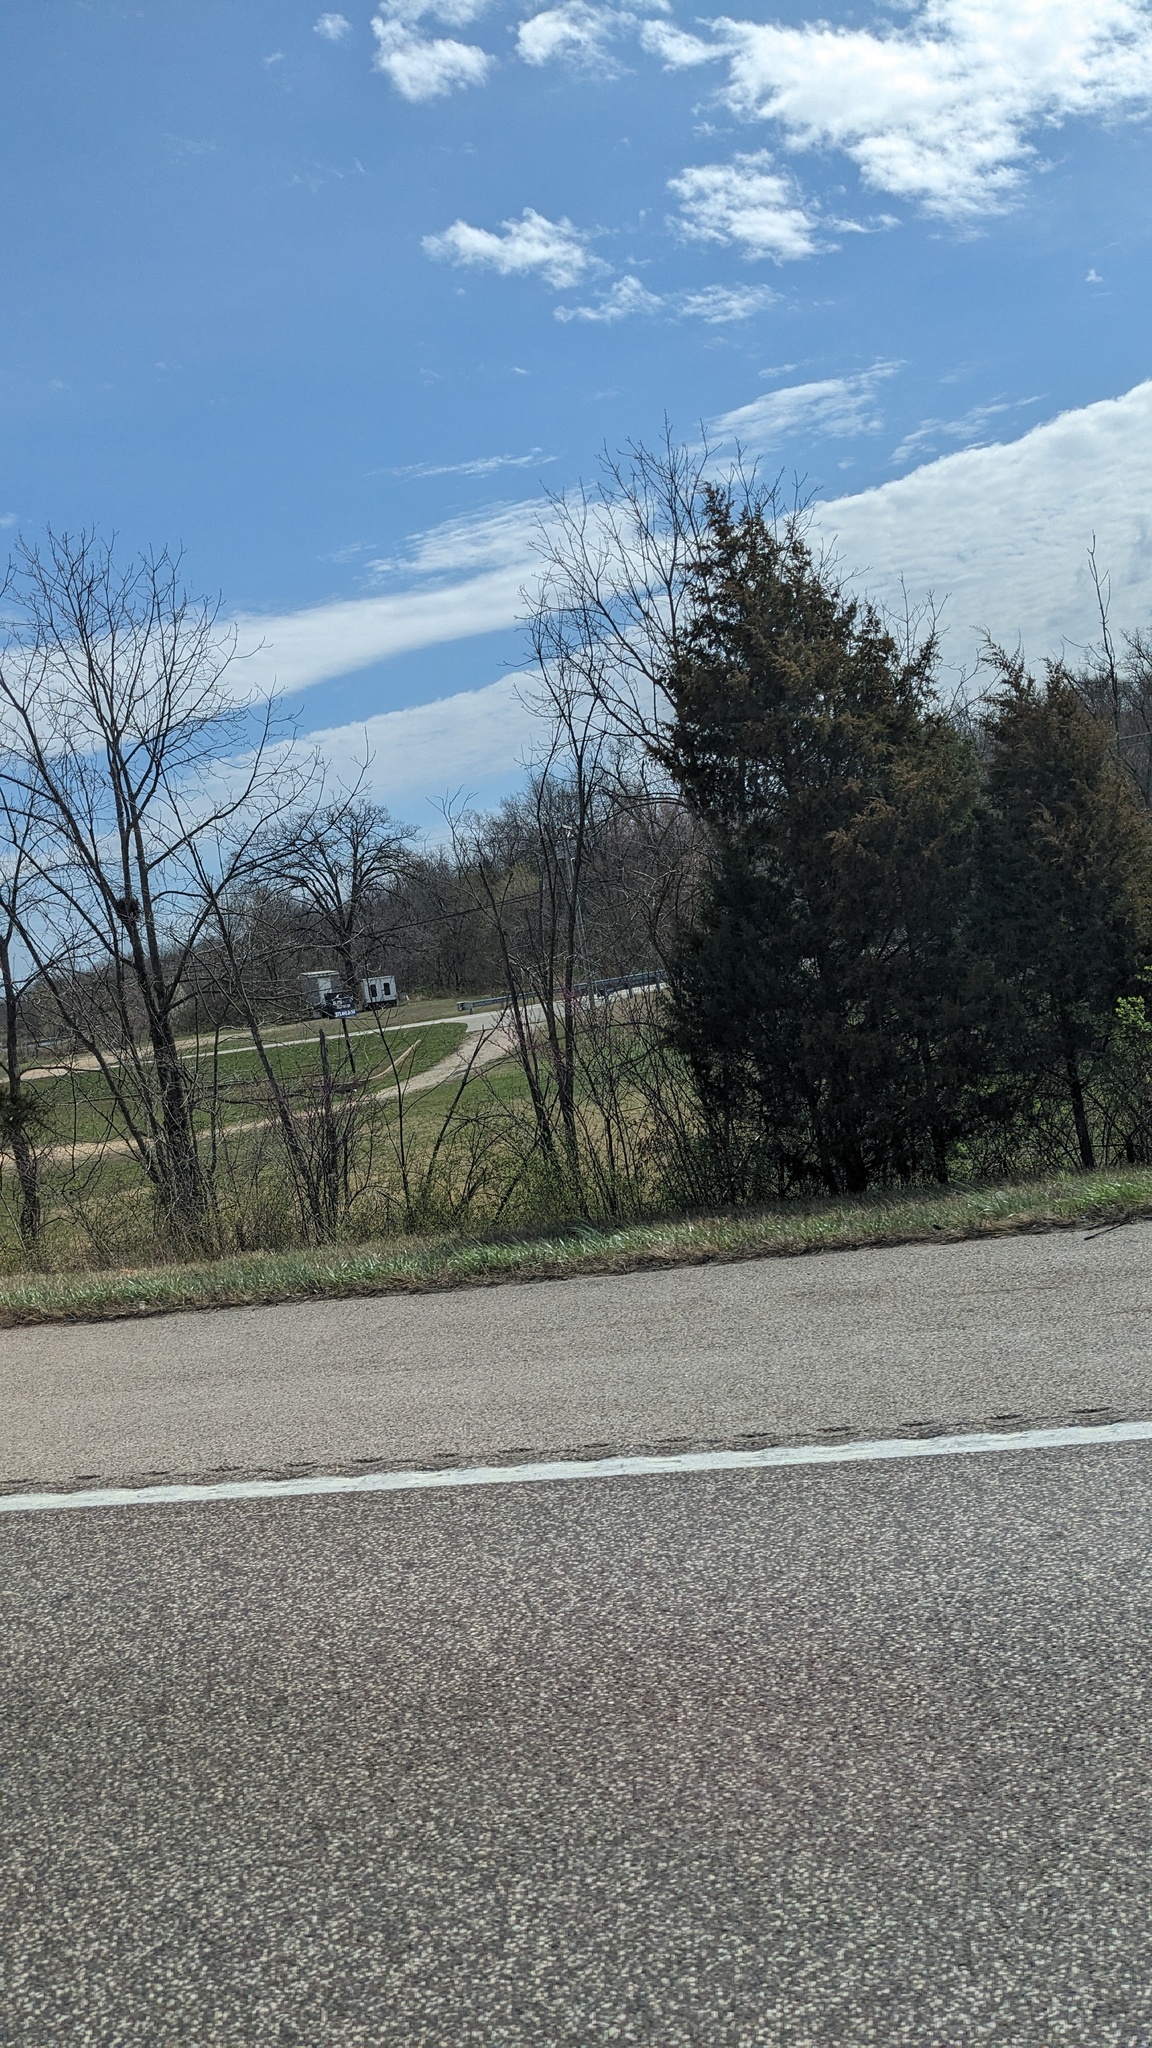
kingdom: Plantae
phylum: Tracheophyta
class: Pinopsida
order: Pinales
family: Cupressaceae
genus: Juniperus
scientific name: Juniperus virginiana
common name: Red juniper
